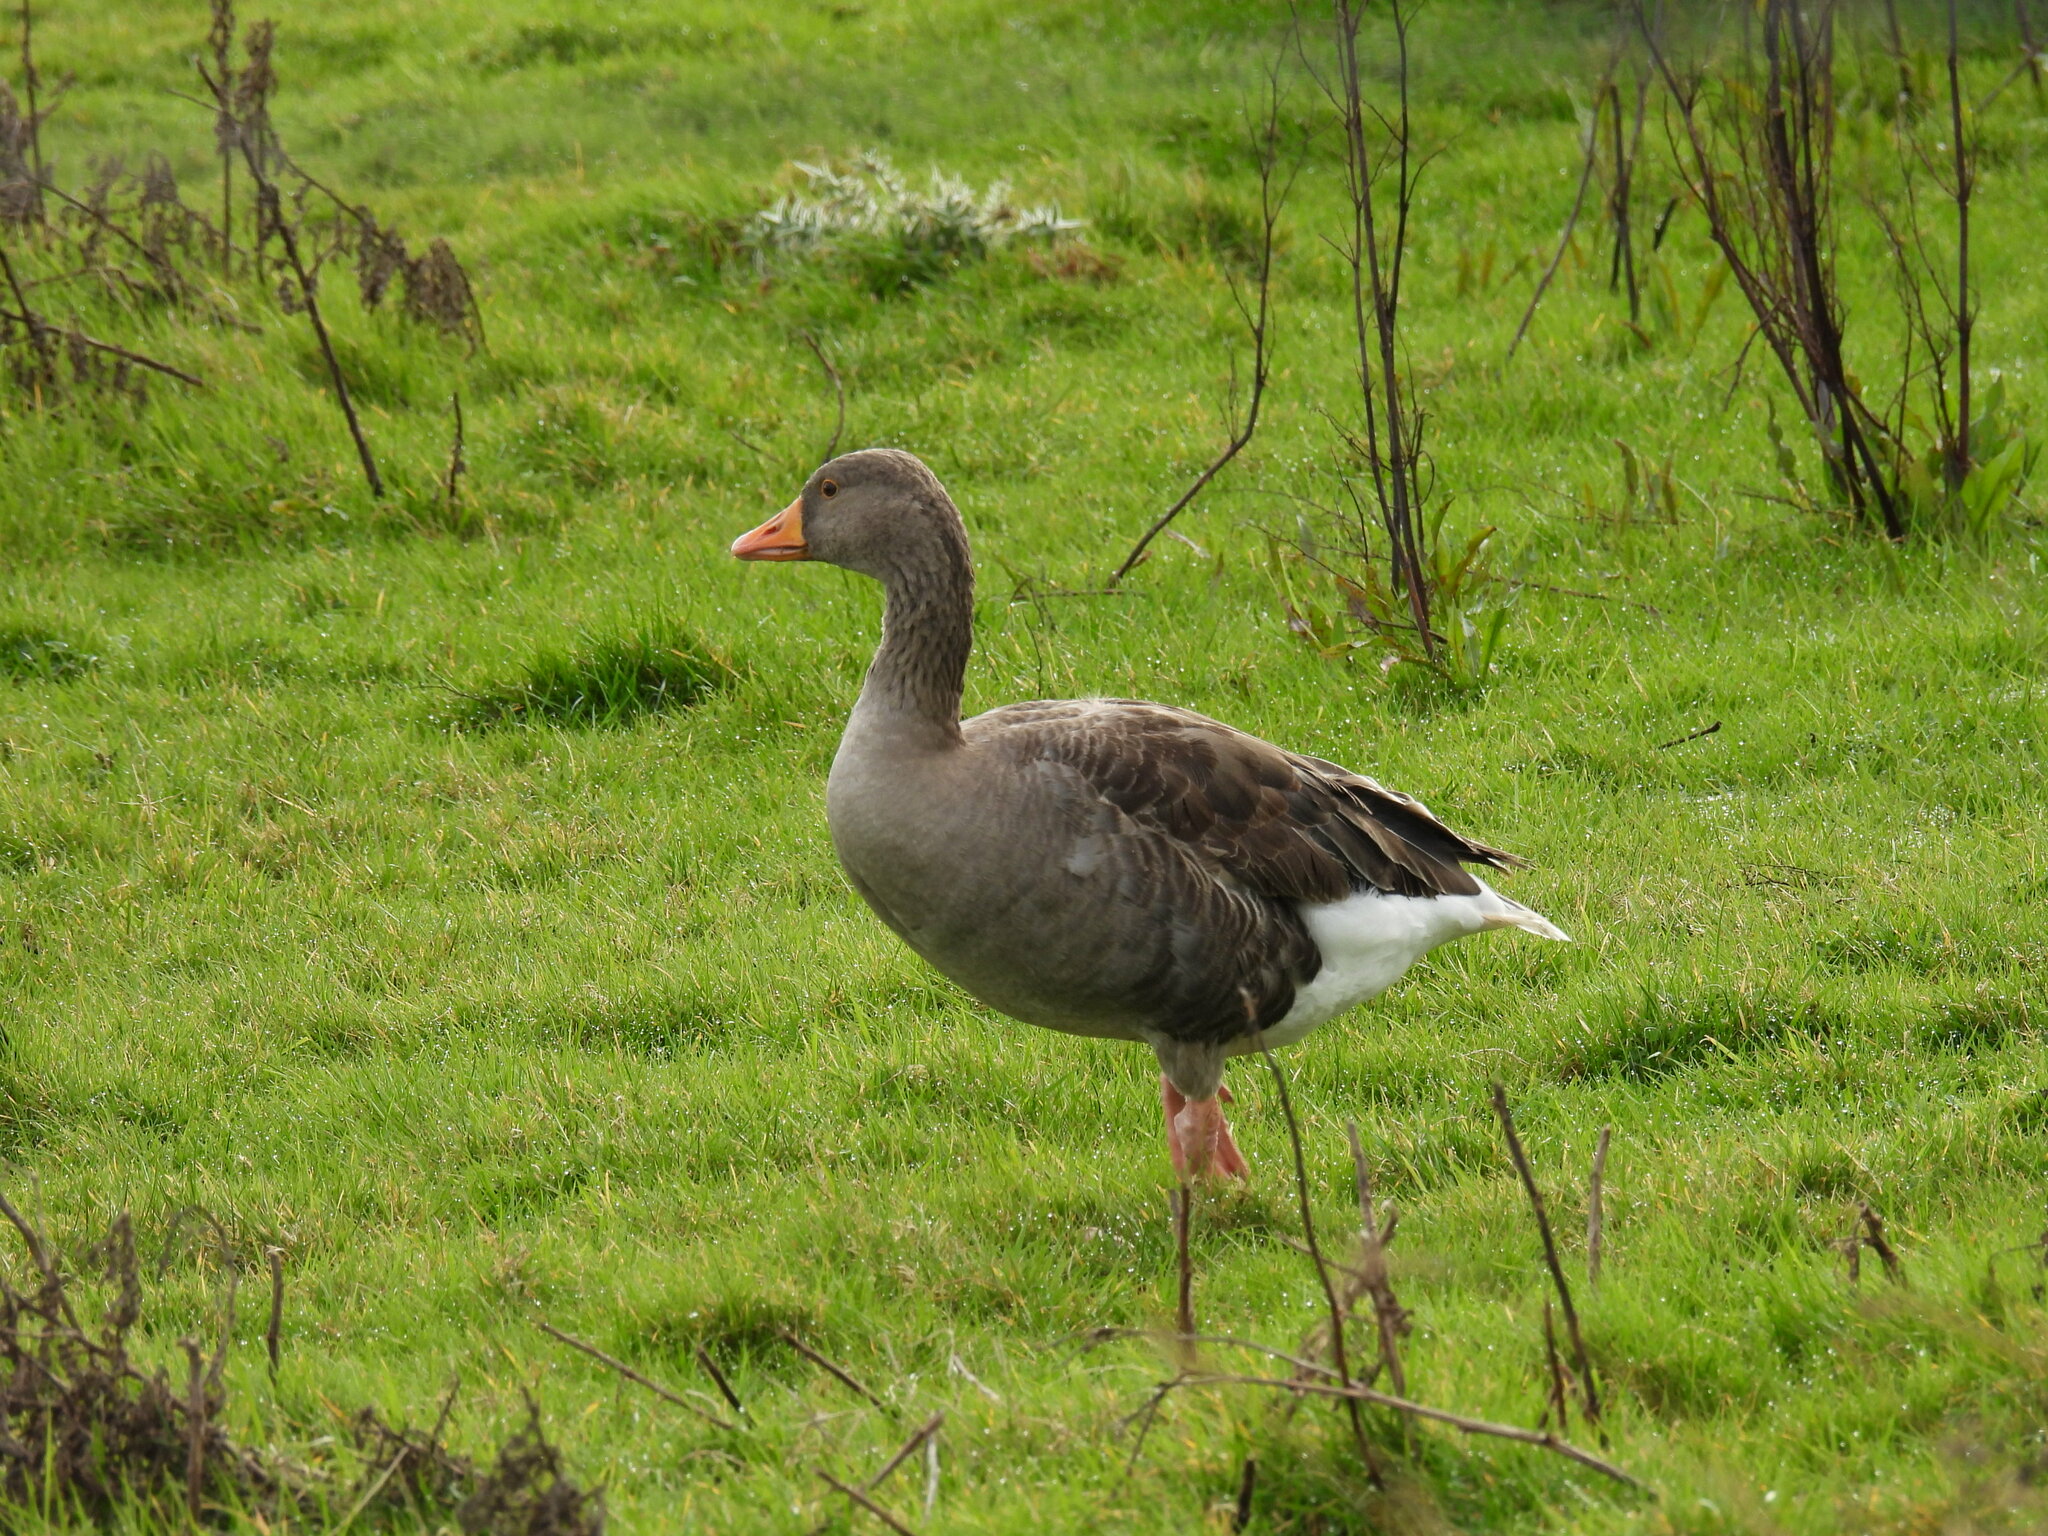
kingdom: Animalia
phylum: Chordata
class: Aves
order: Anseriformes
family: Anatidae
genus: Anser
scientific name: Anser anser
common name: Greylag goose
